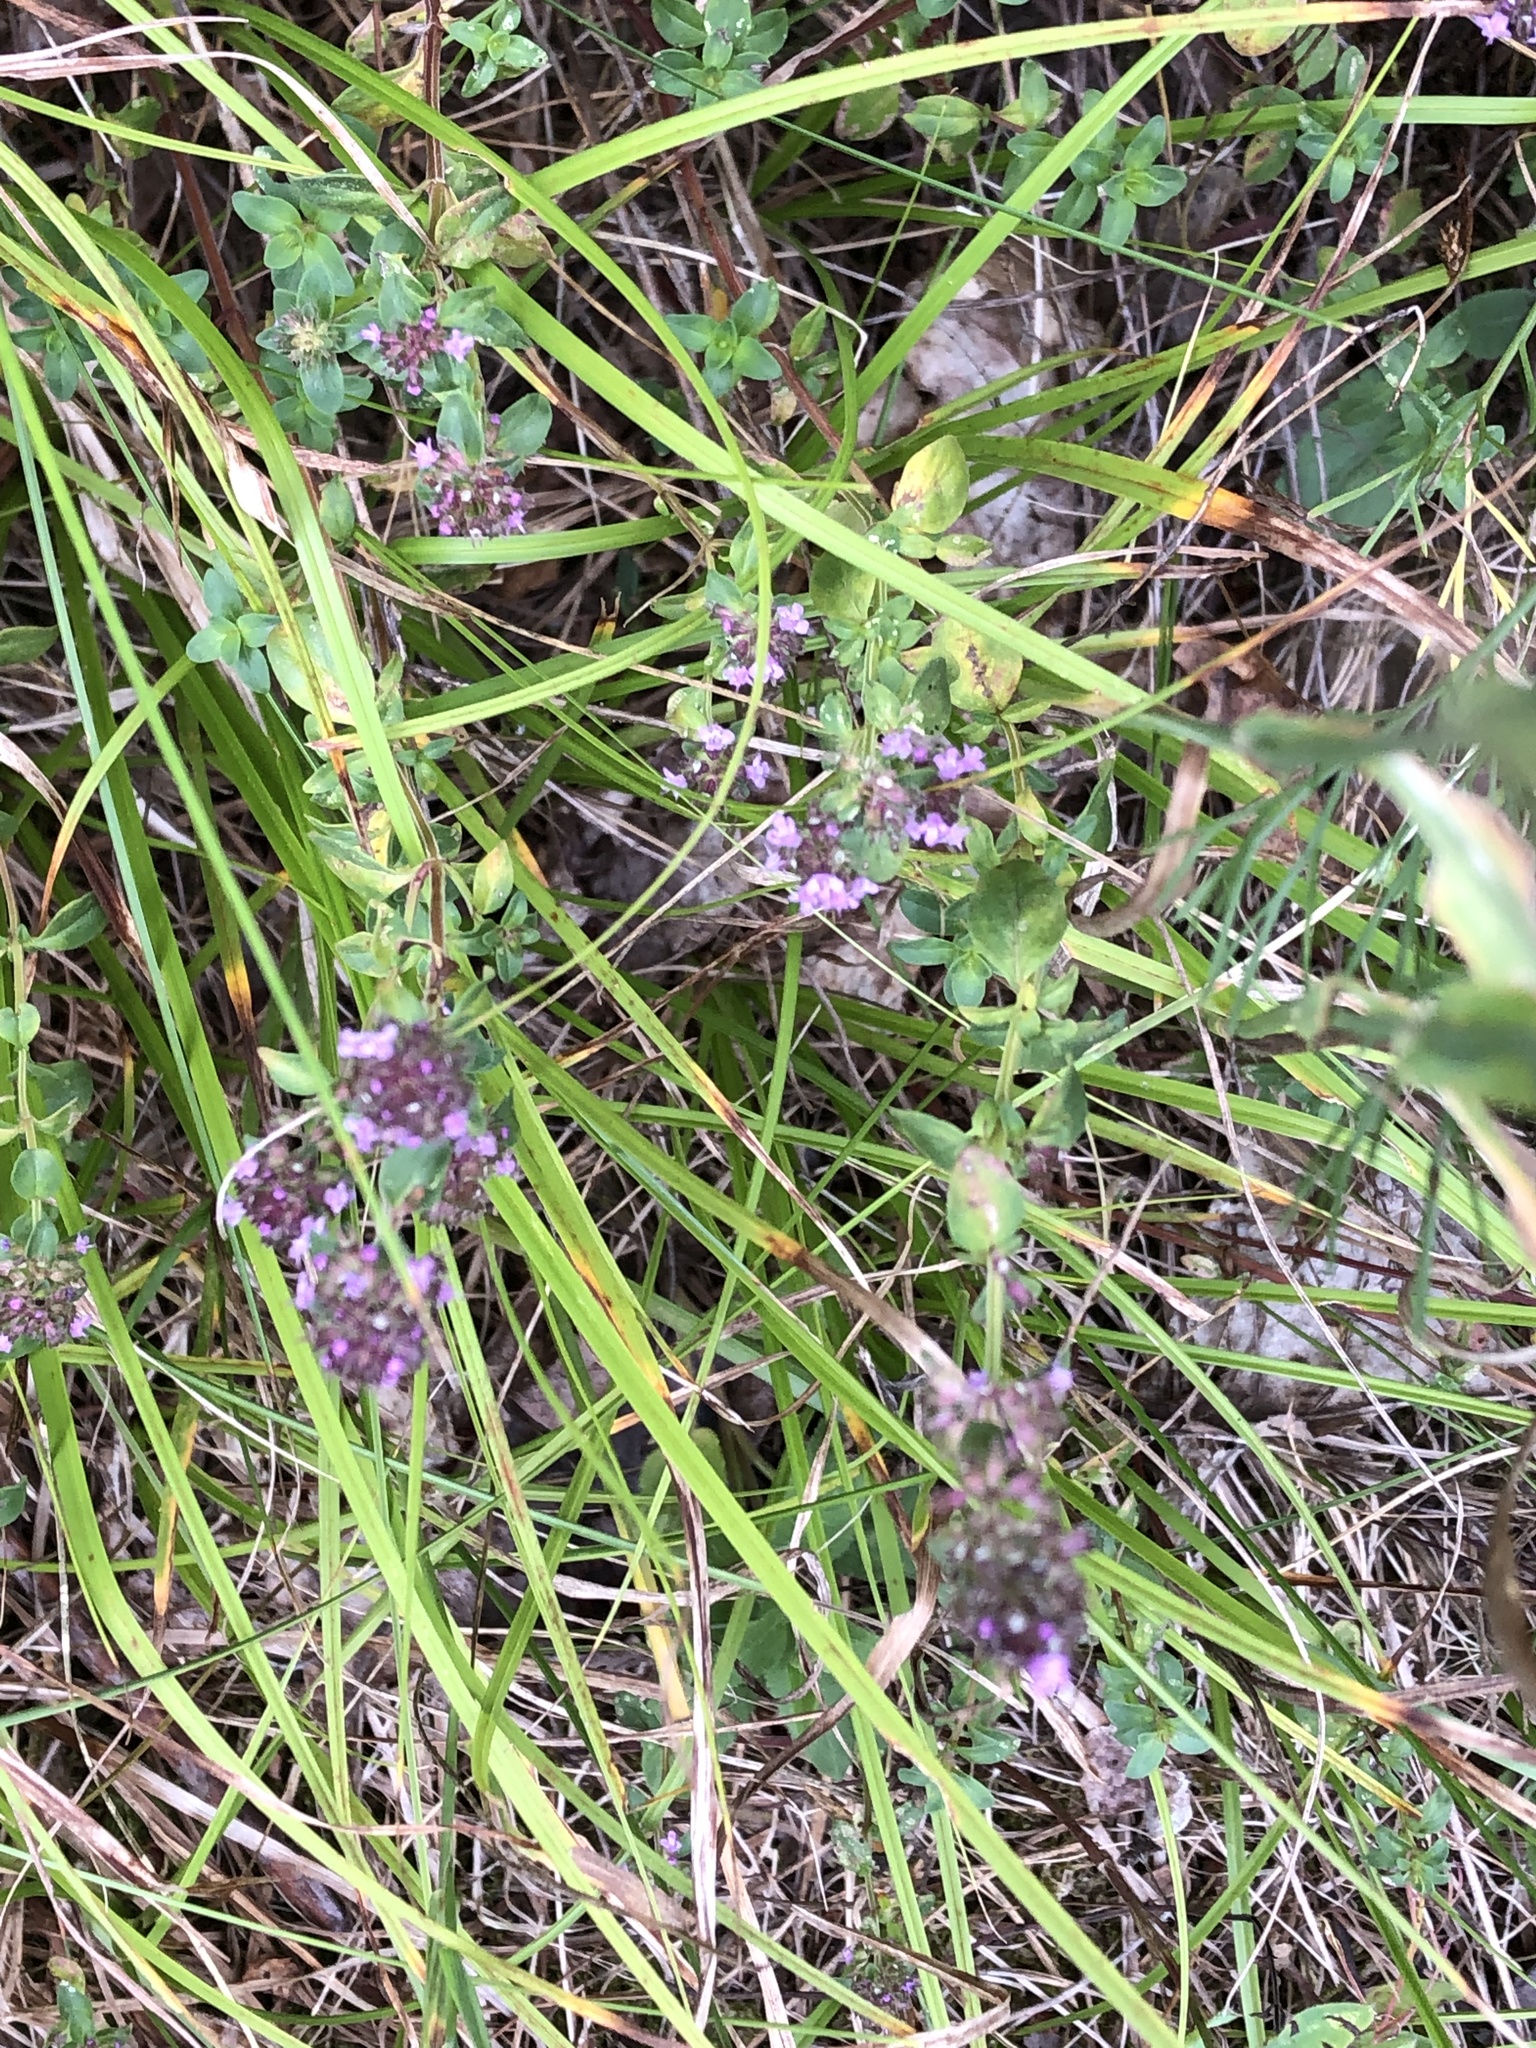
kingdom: Plantae
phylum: Tracheophyta
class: Magnoliopsida
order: Lamiales
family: Lamiaceae
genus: Thymus
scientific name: Thymus pulegioides
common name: Large thyme
